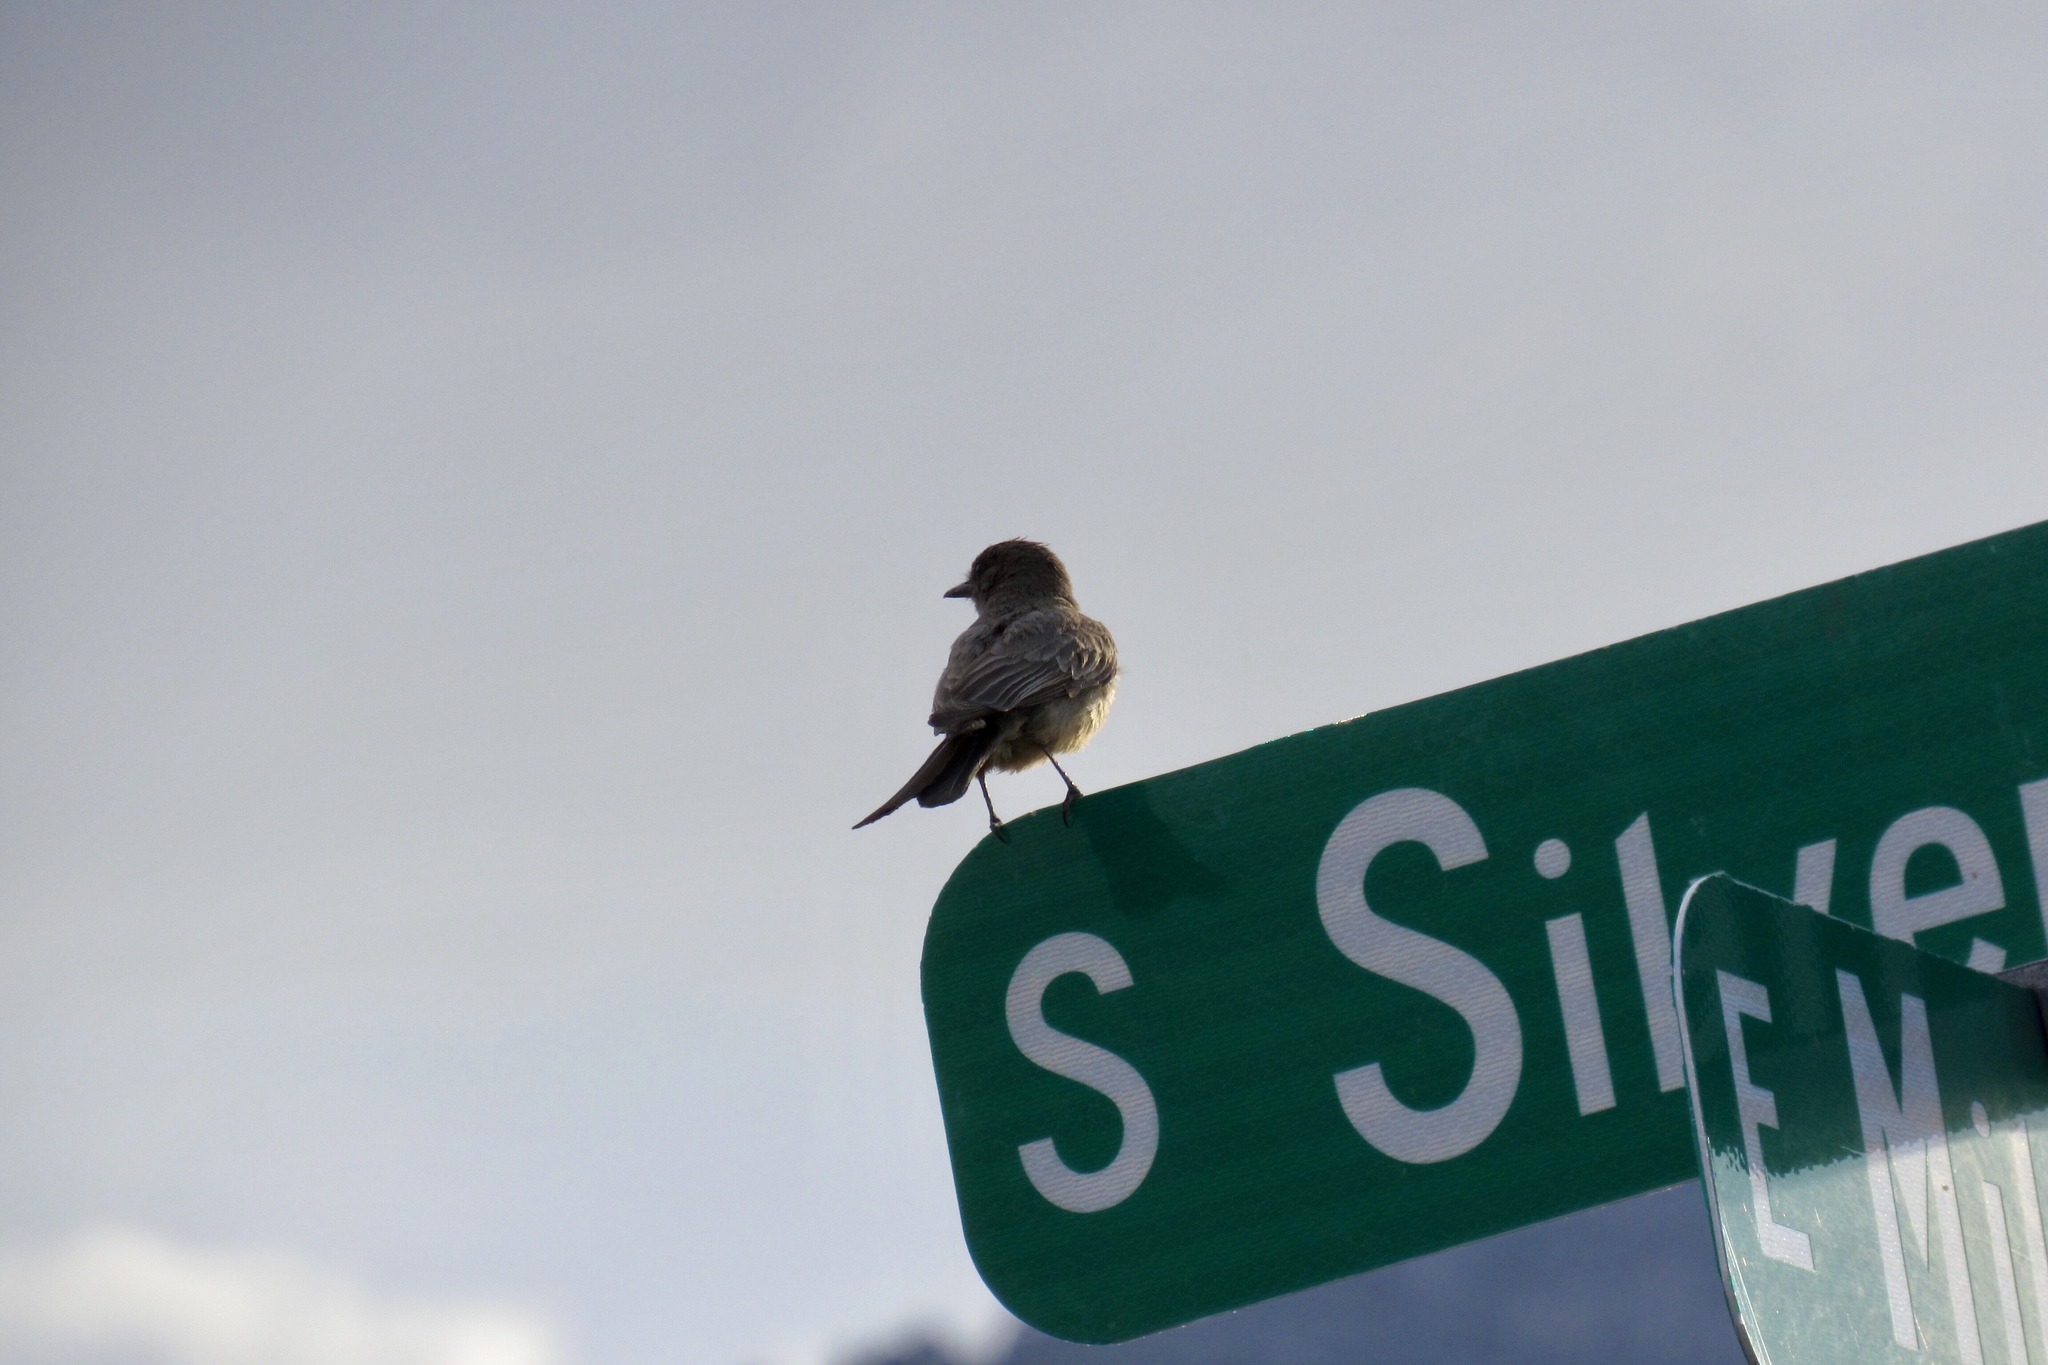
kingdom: Animalia
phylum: Chordata
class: Aves
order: Passeriformes
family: Tyrannidae
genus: Sayornis
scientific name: Sayornis saya
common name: Say's phoebe
